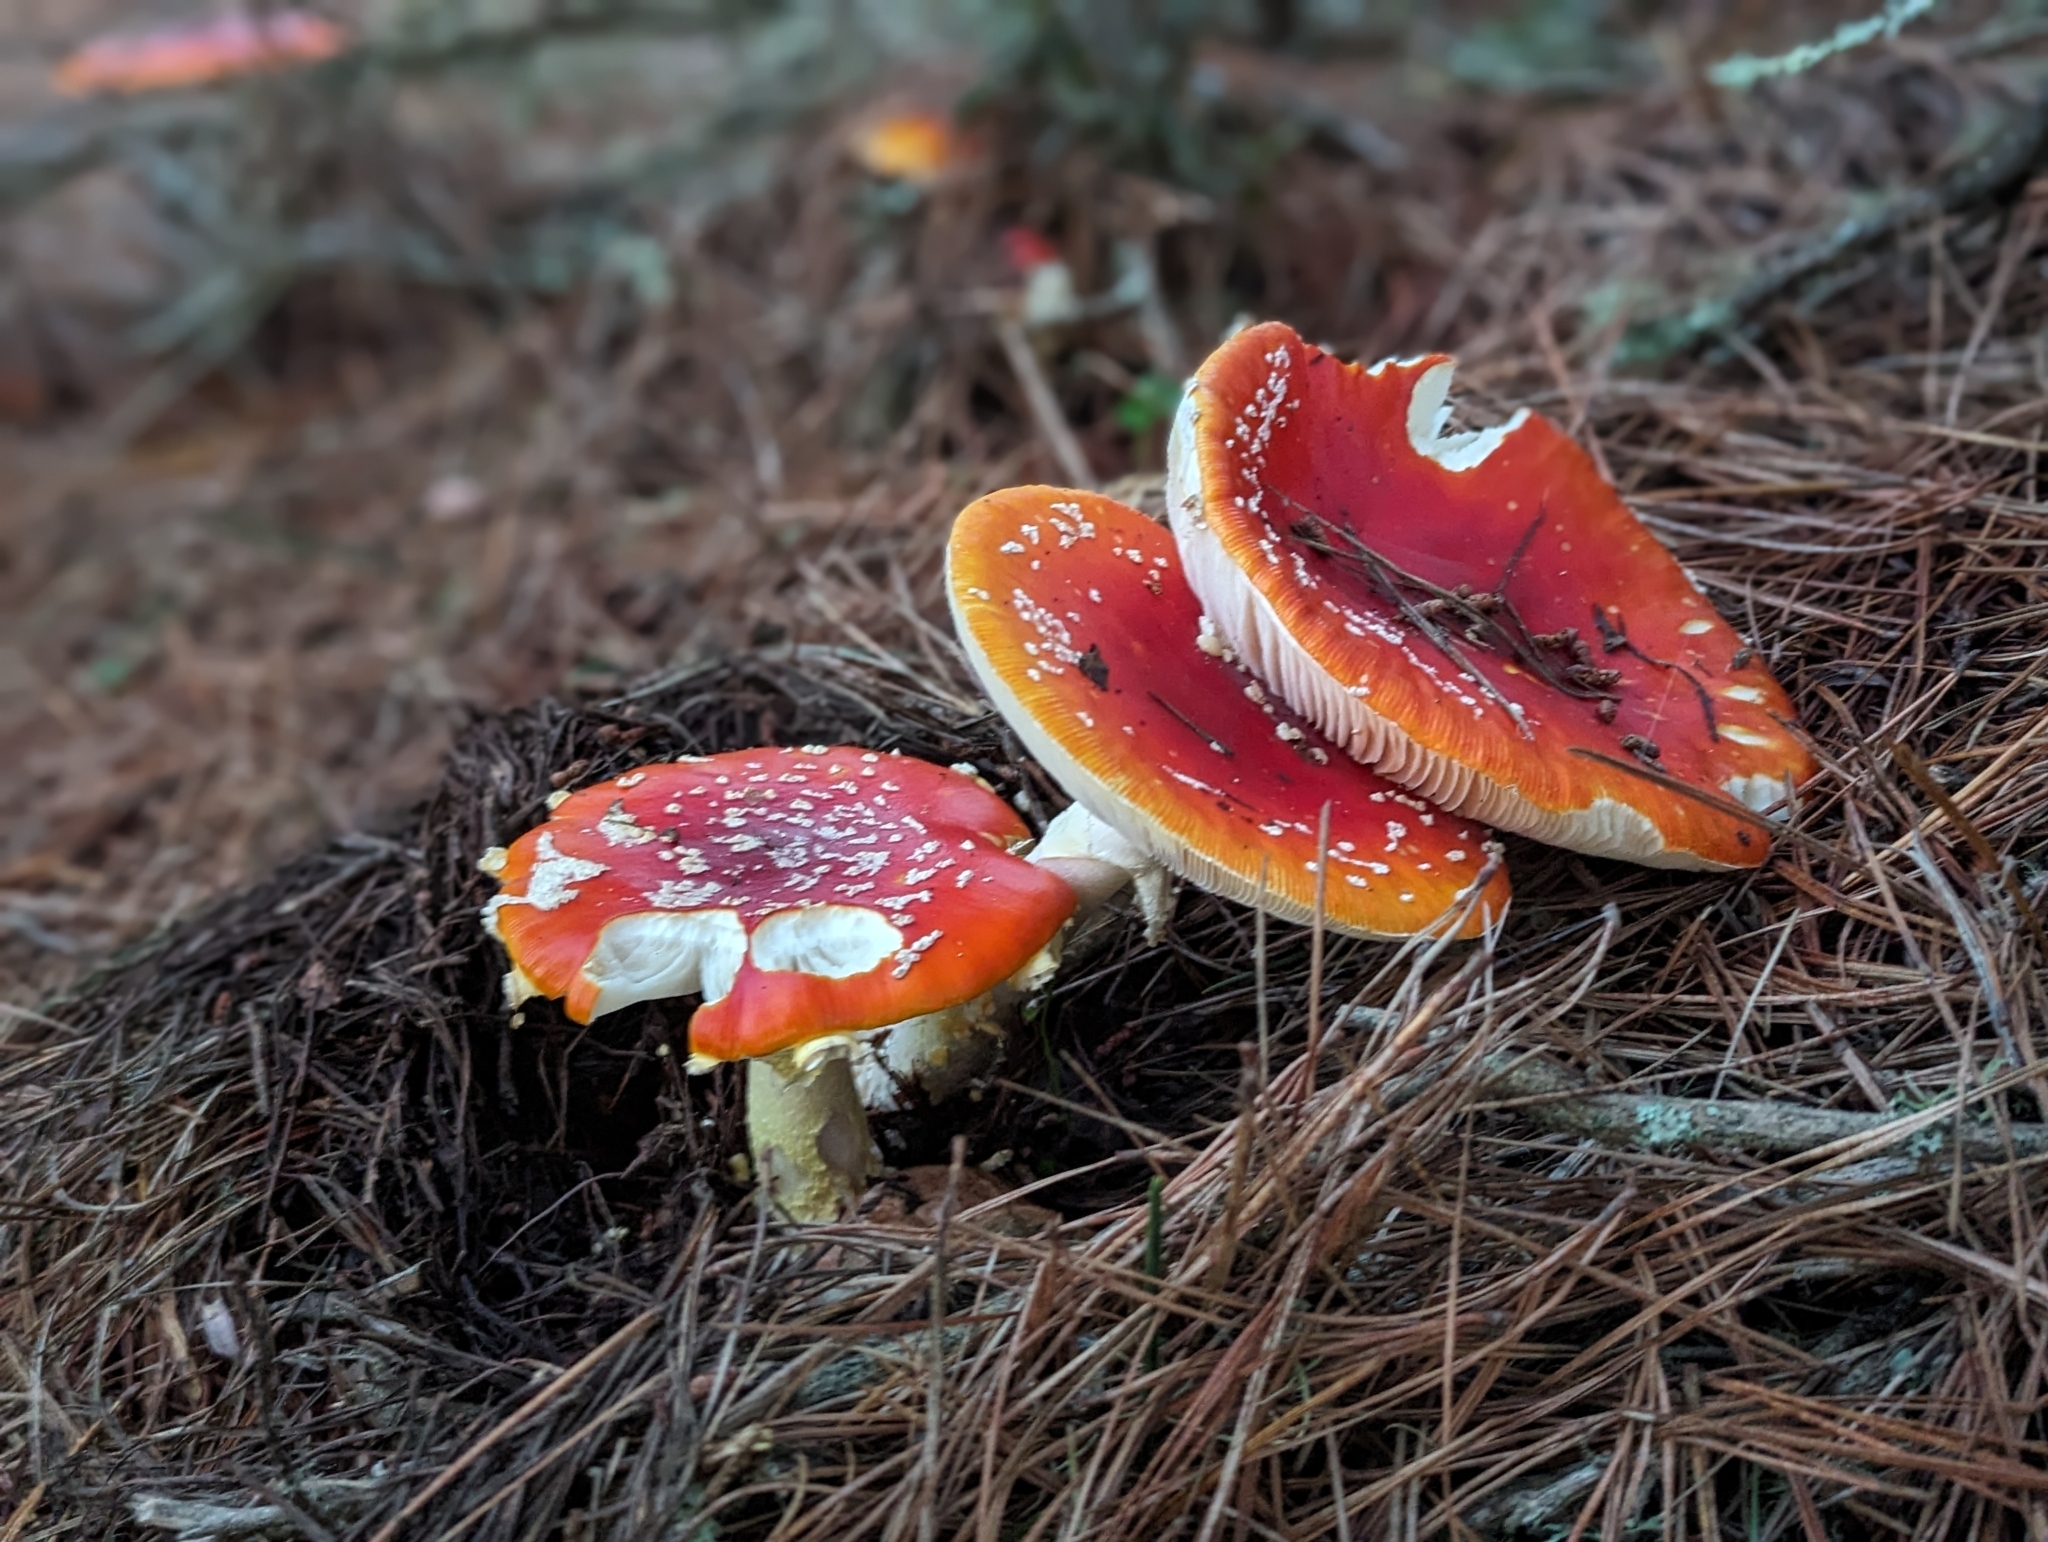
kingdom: Fungi
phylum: Basidiomycota
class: Agaricomycetes
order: Agaricales
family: Amanitaceae
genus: Amanita
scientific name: Amanita muscaria
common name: Fly agaric
